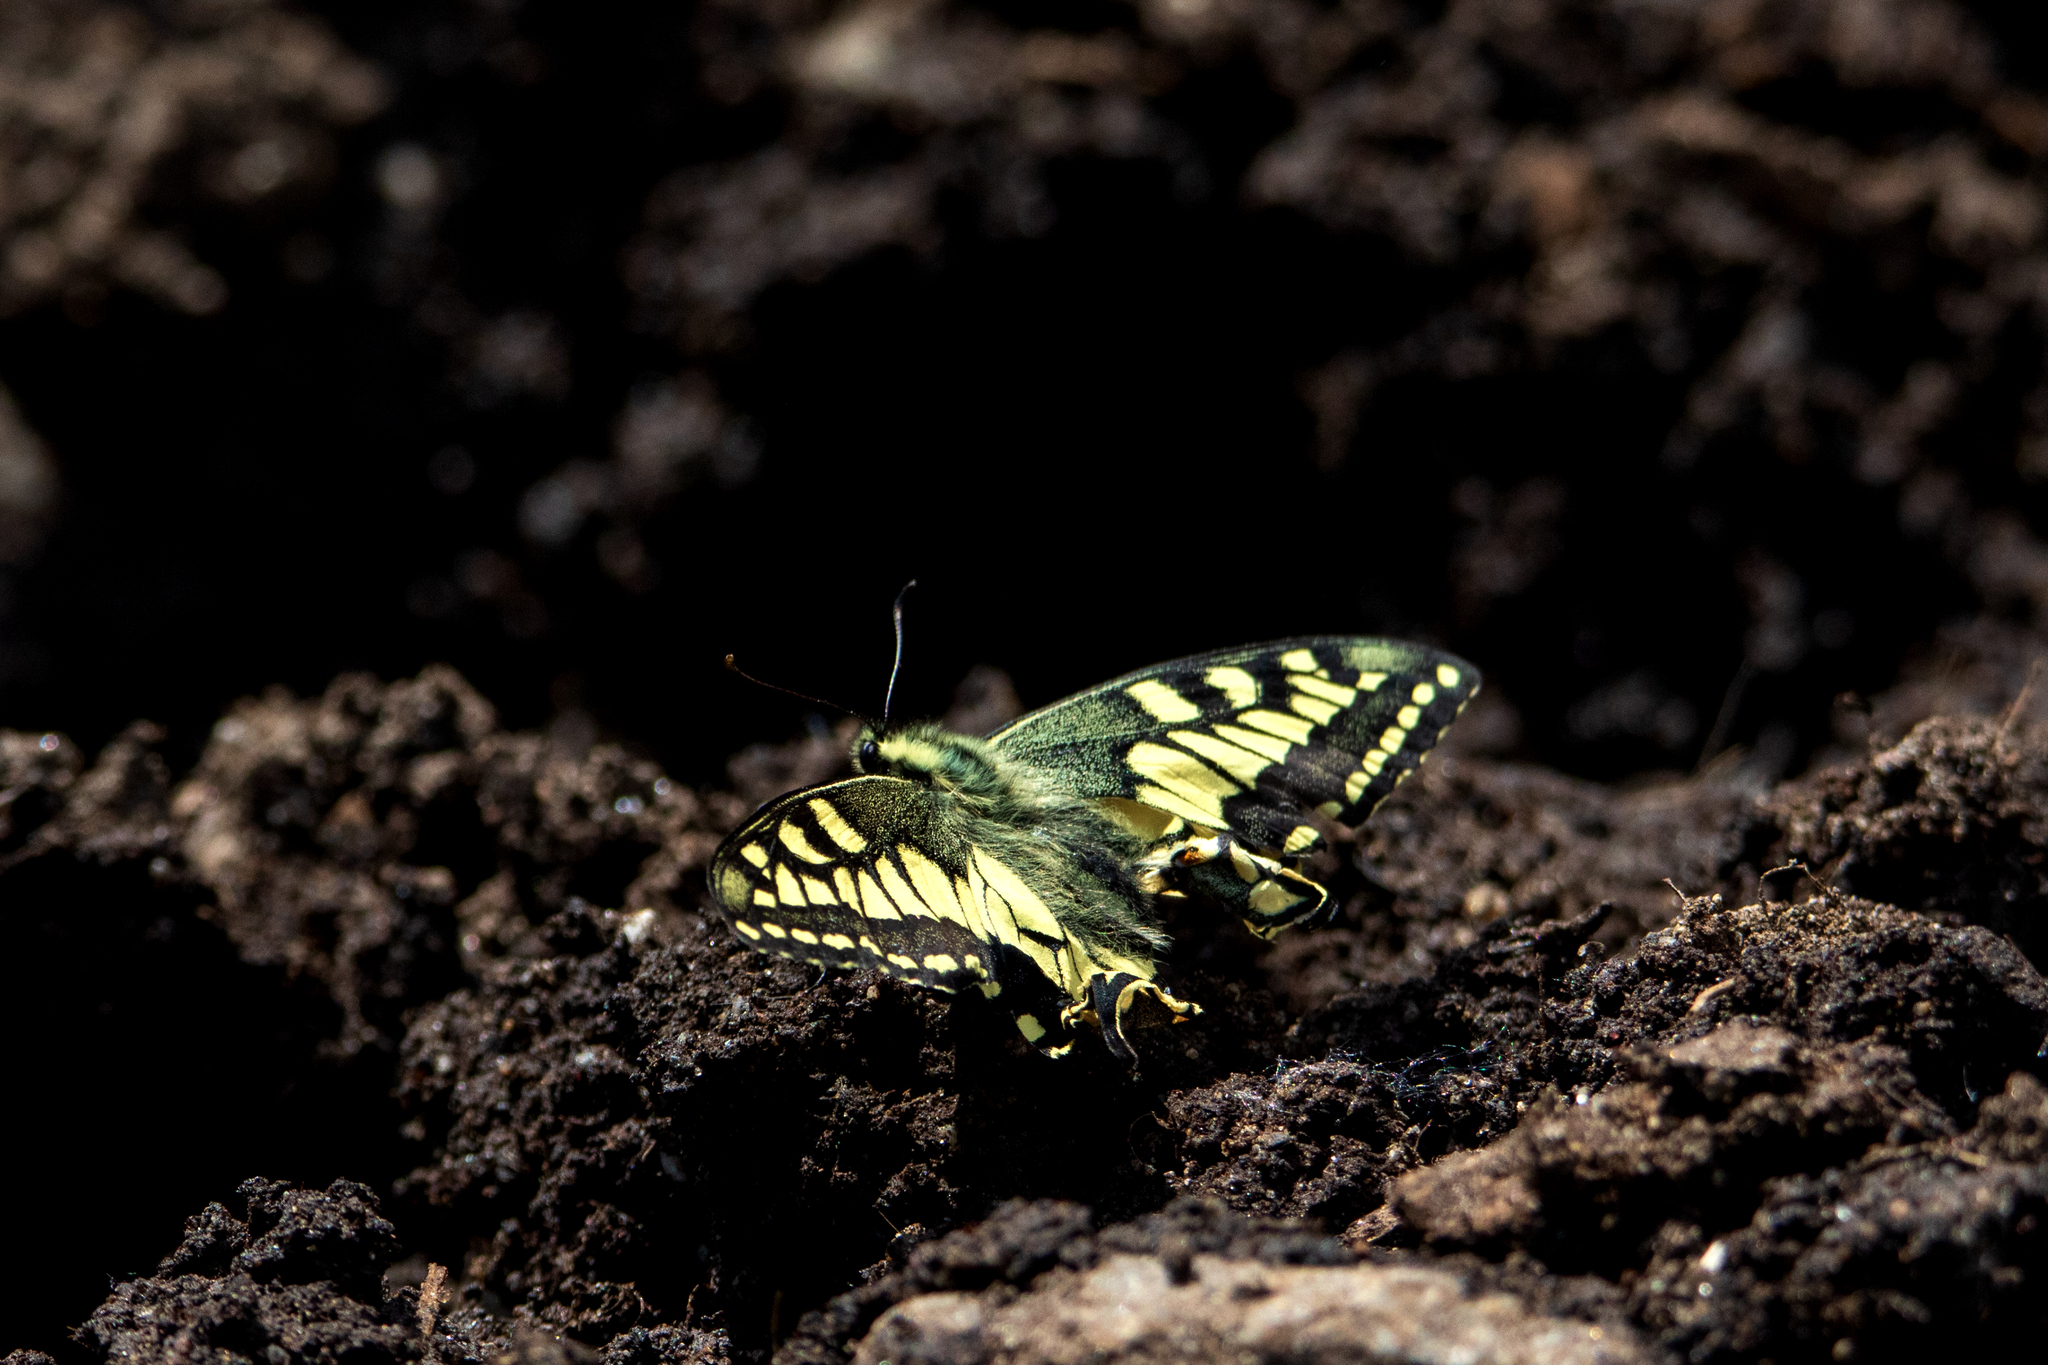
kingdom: Animalia
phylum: Arthropoda
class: Insecta
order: Lepidoptera
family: Papilionidae
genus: Papilio
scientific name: Papilio machaon
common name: Swallowtail
